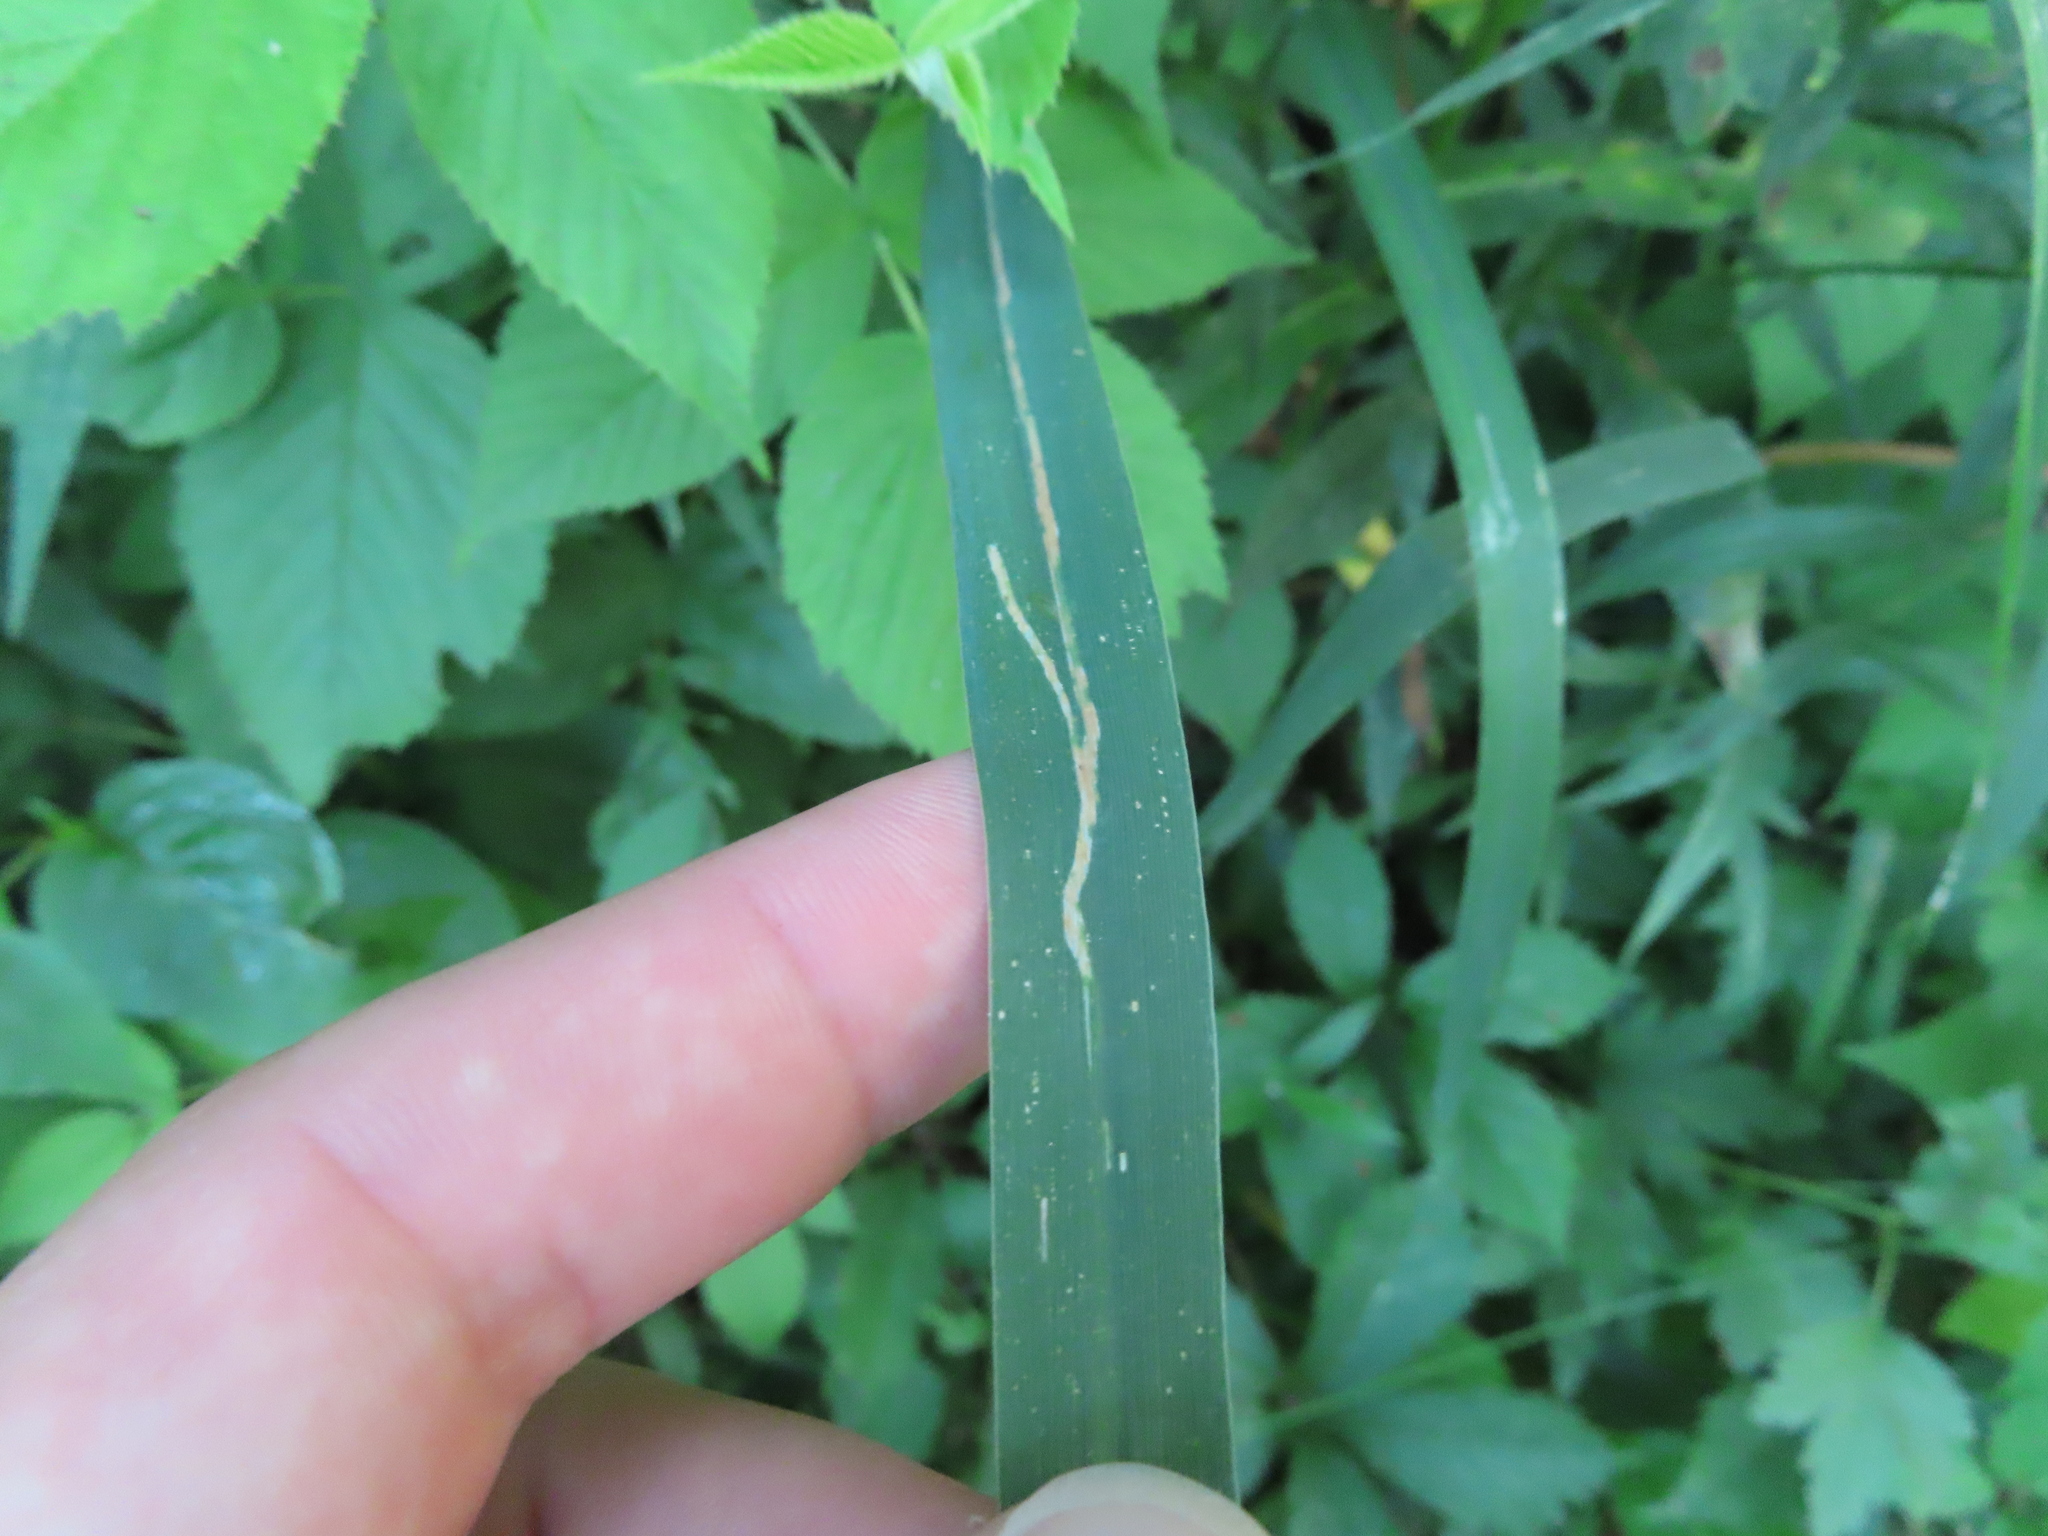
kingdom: Animalia
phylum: Arthropoda
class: Insecta
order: Diptera
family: Agromyzidae
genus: Cerodontha
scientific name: Cerodontha dorsalis
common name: Grass sheathminer fly
